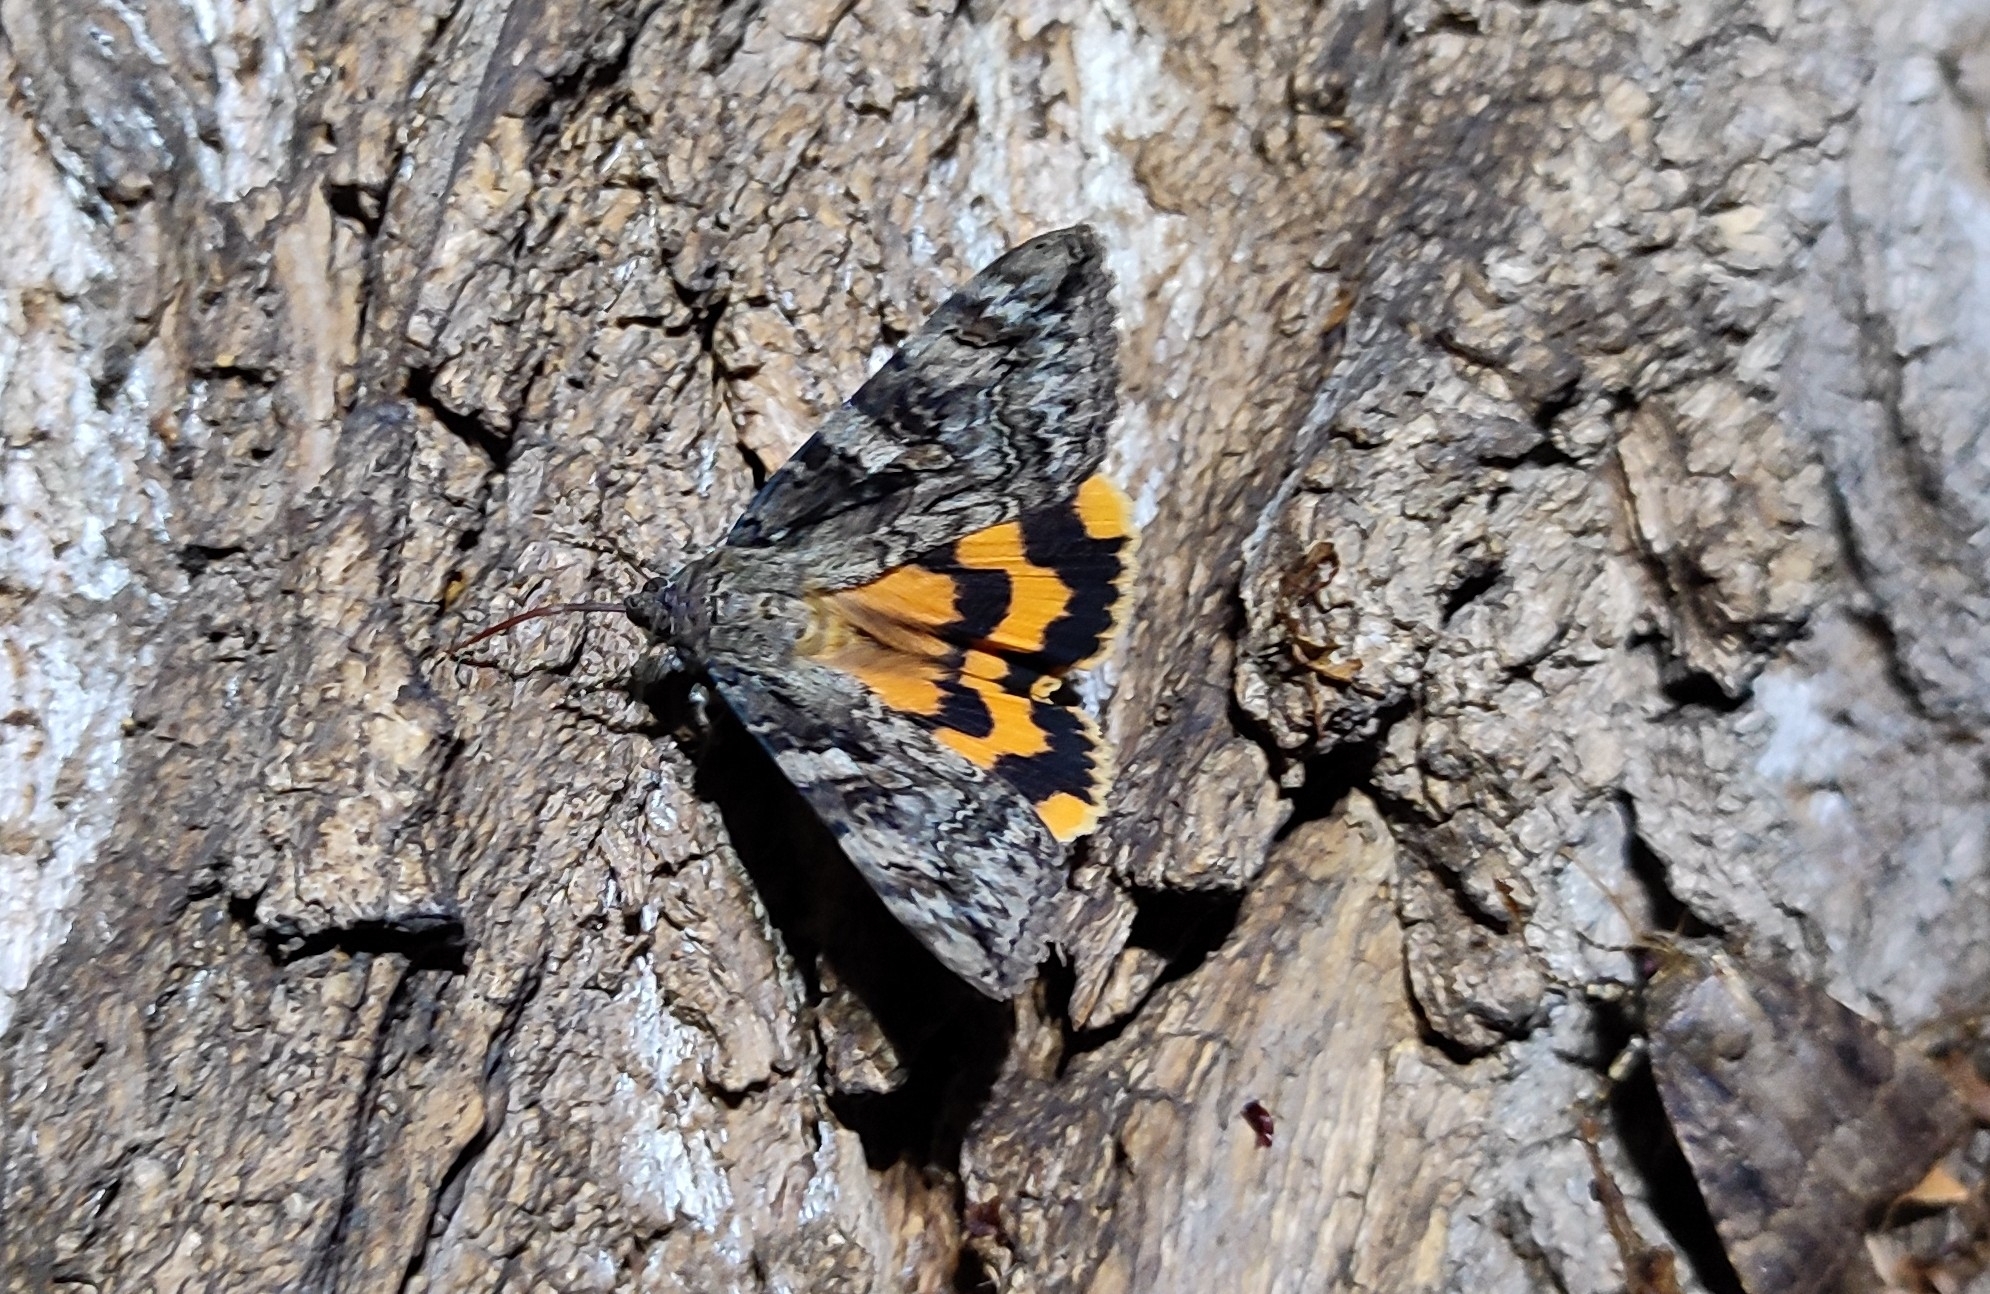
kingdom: Animalia
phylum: Arthropoda
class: Insecta
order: Lepidoptera
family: Erebidae
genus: Catocala
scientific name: Catocala helena
